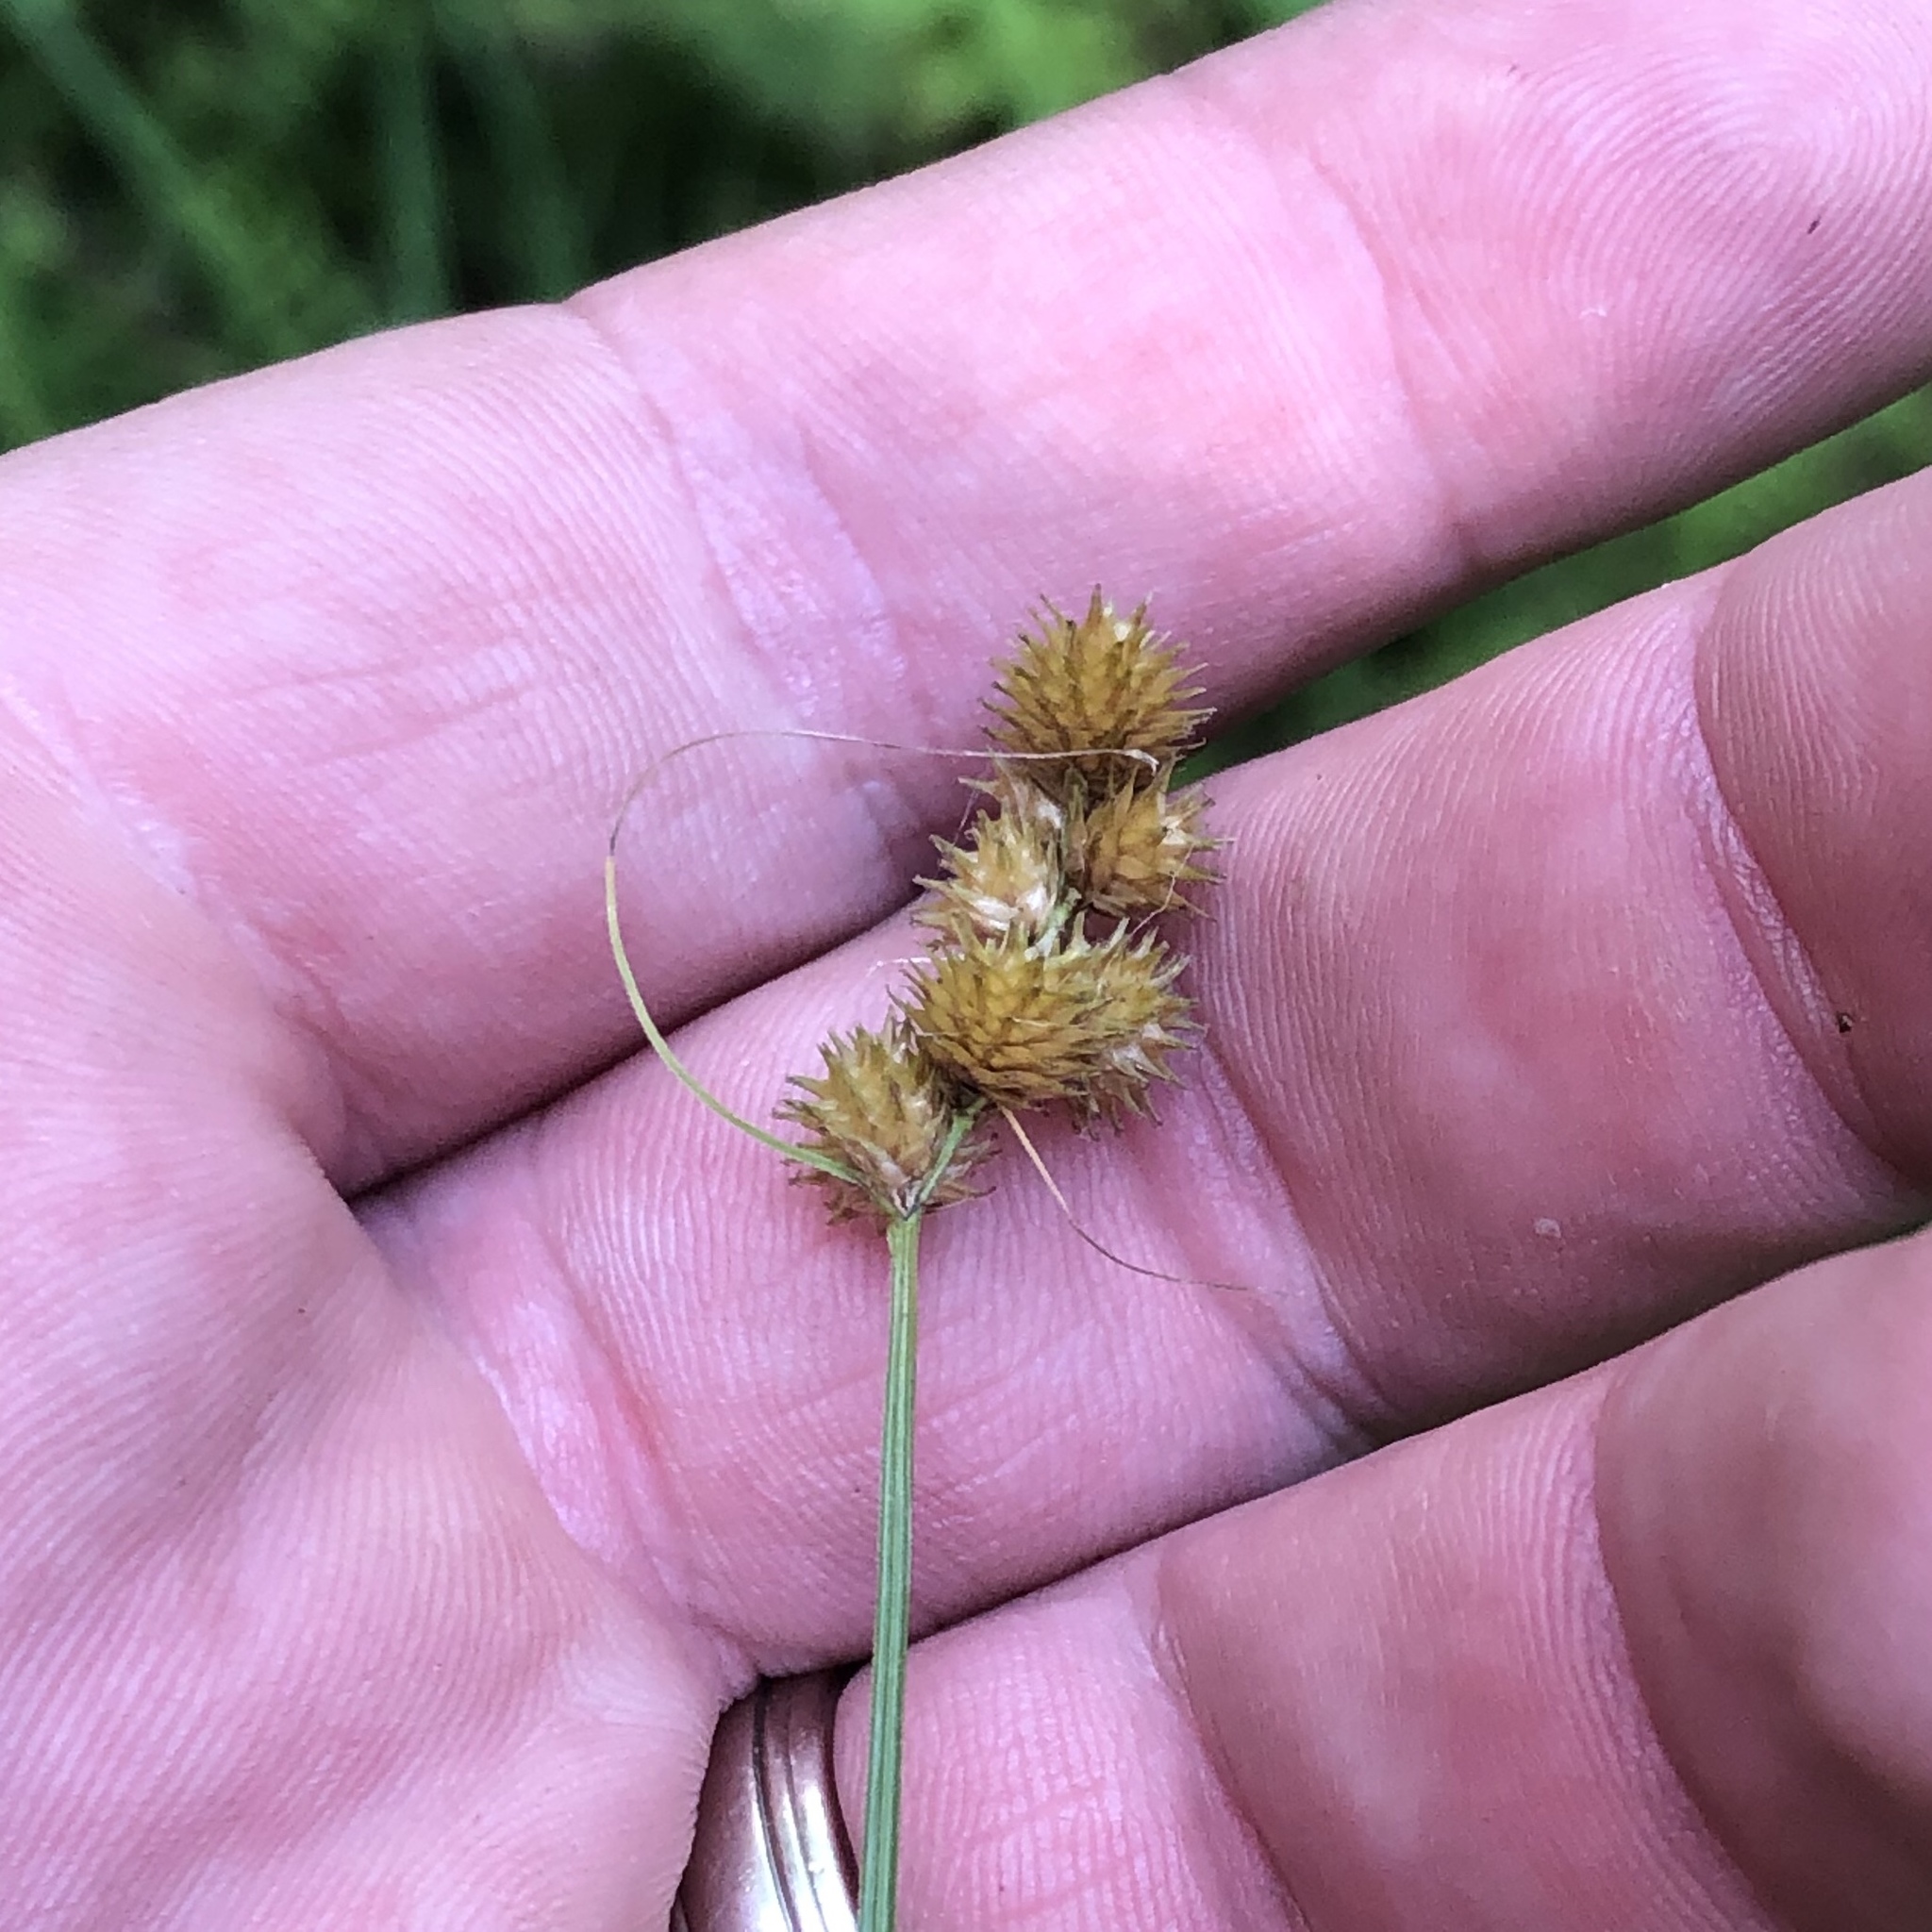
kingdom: Plantae
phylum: Tracheophyta
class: Liliopsida
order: Poales
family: Cyperaceae
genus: Carex
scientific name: Carex cristatella
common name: Crested oval sedge
